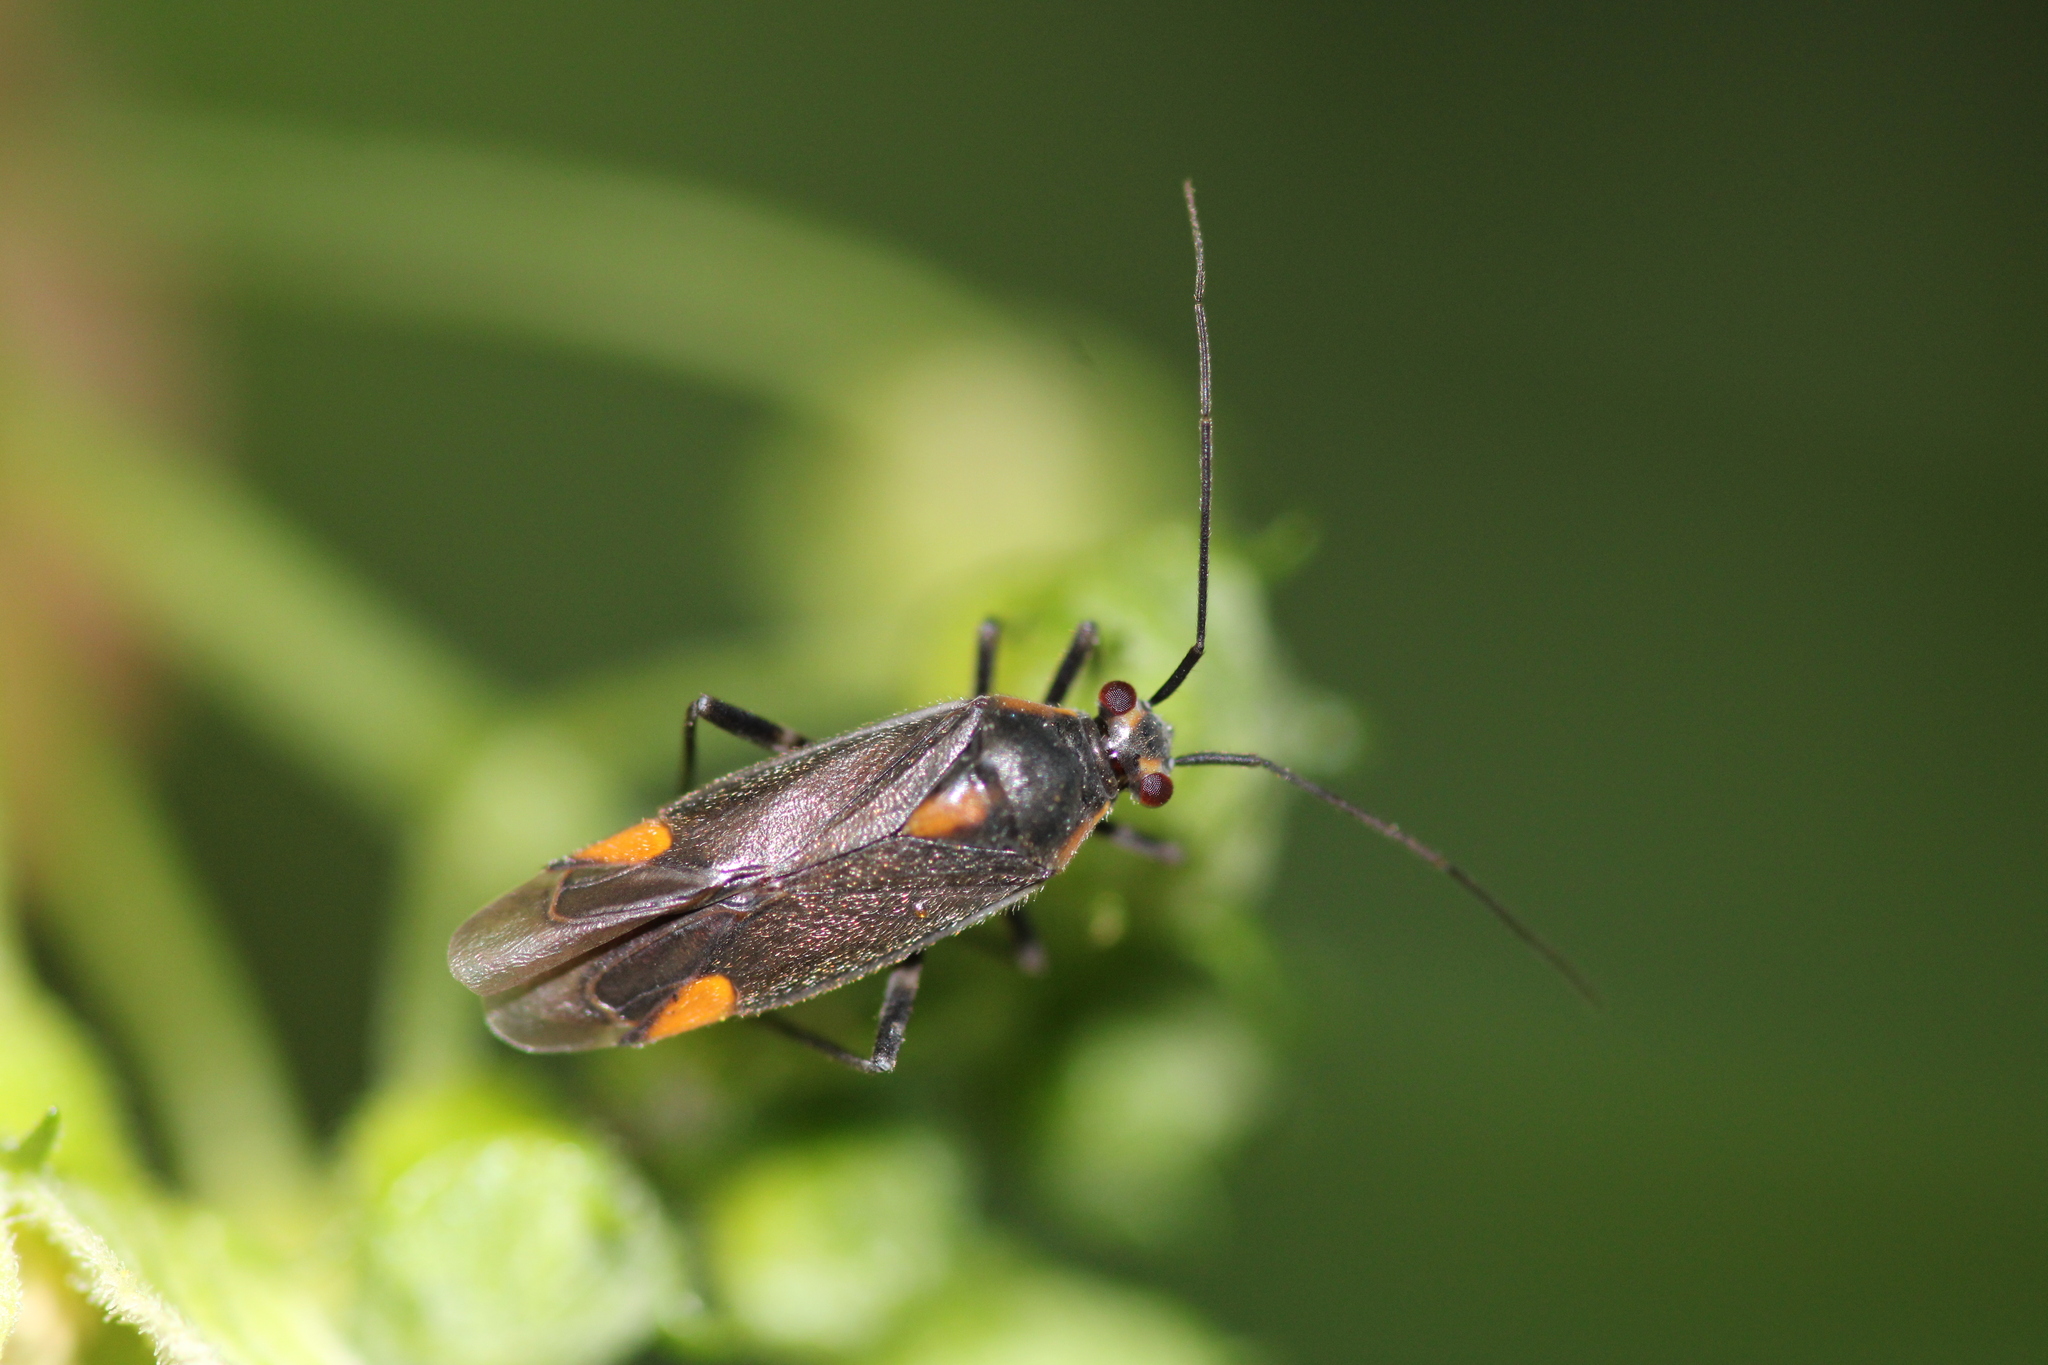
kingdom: Animalia
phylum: Arthropoda
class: Insecta
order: Hemiptera
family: Miridae
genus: Capsodes
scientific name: Capsodes flavomarginatus
